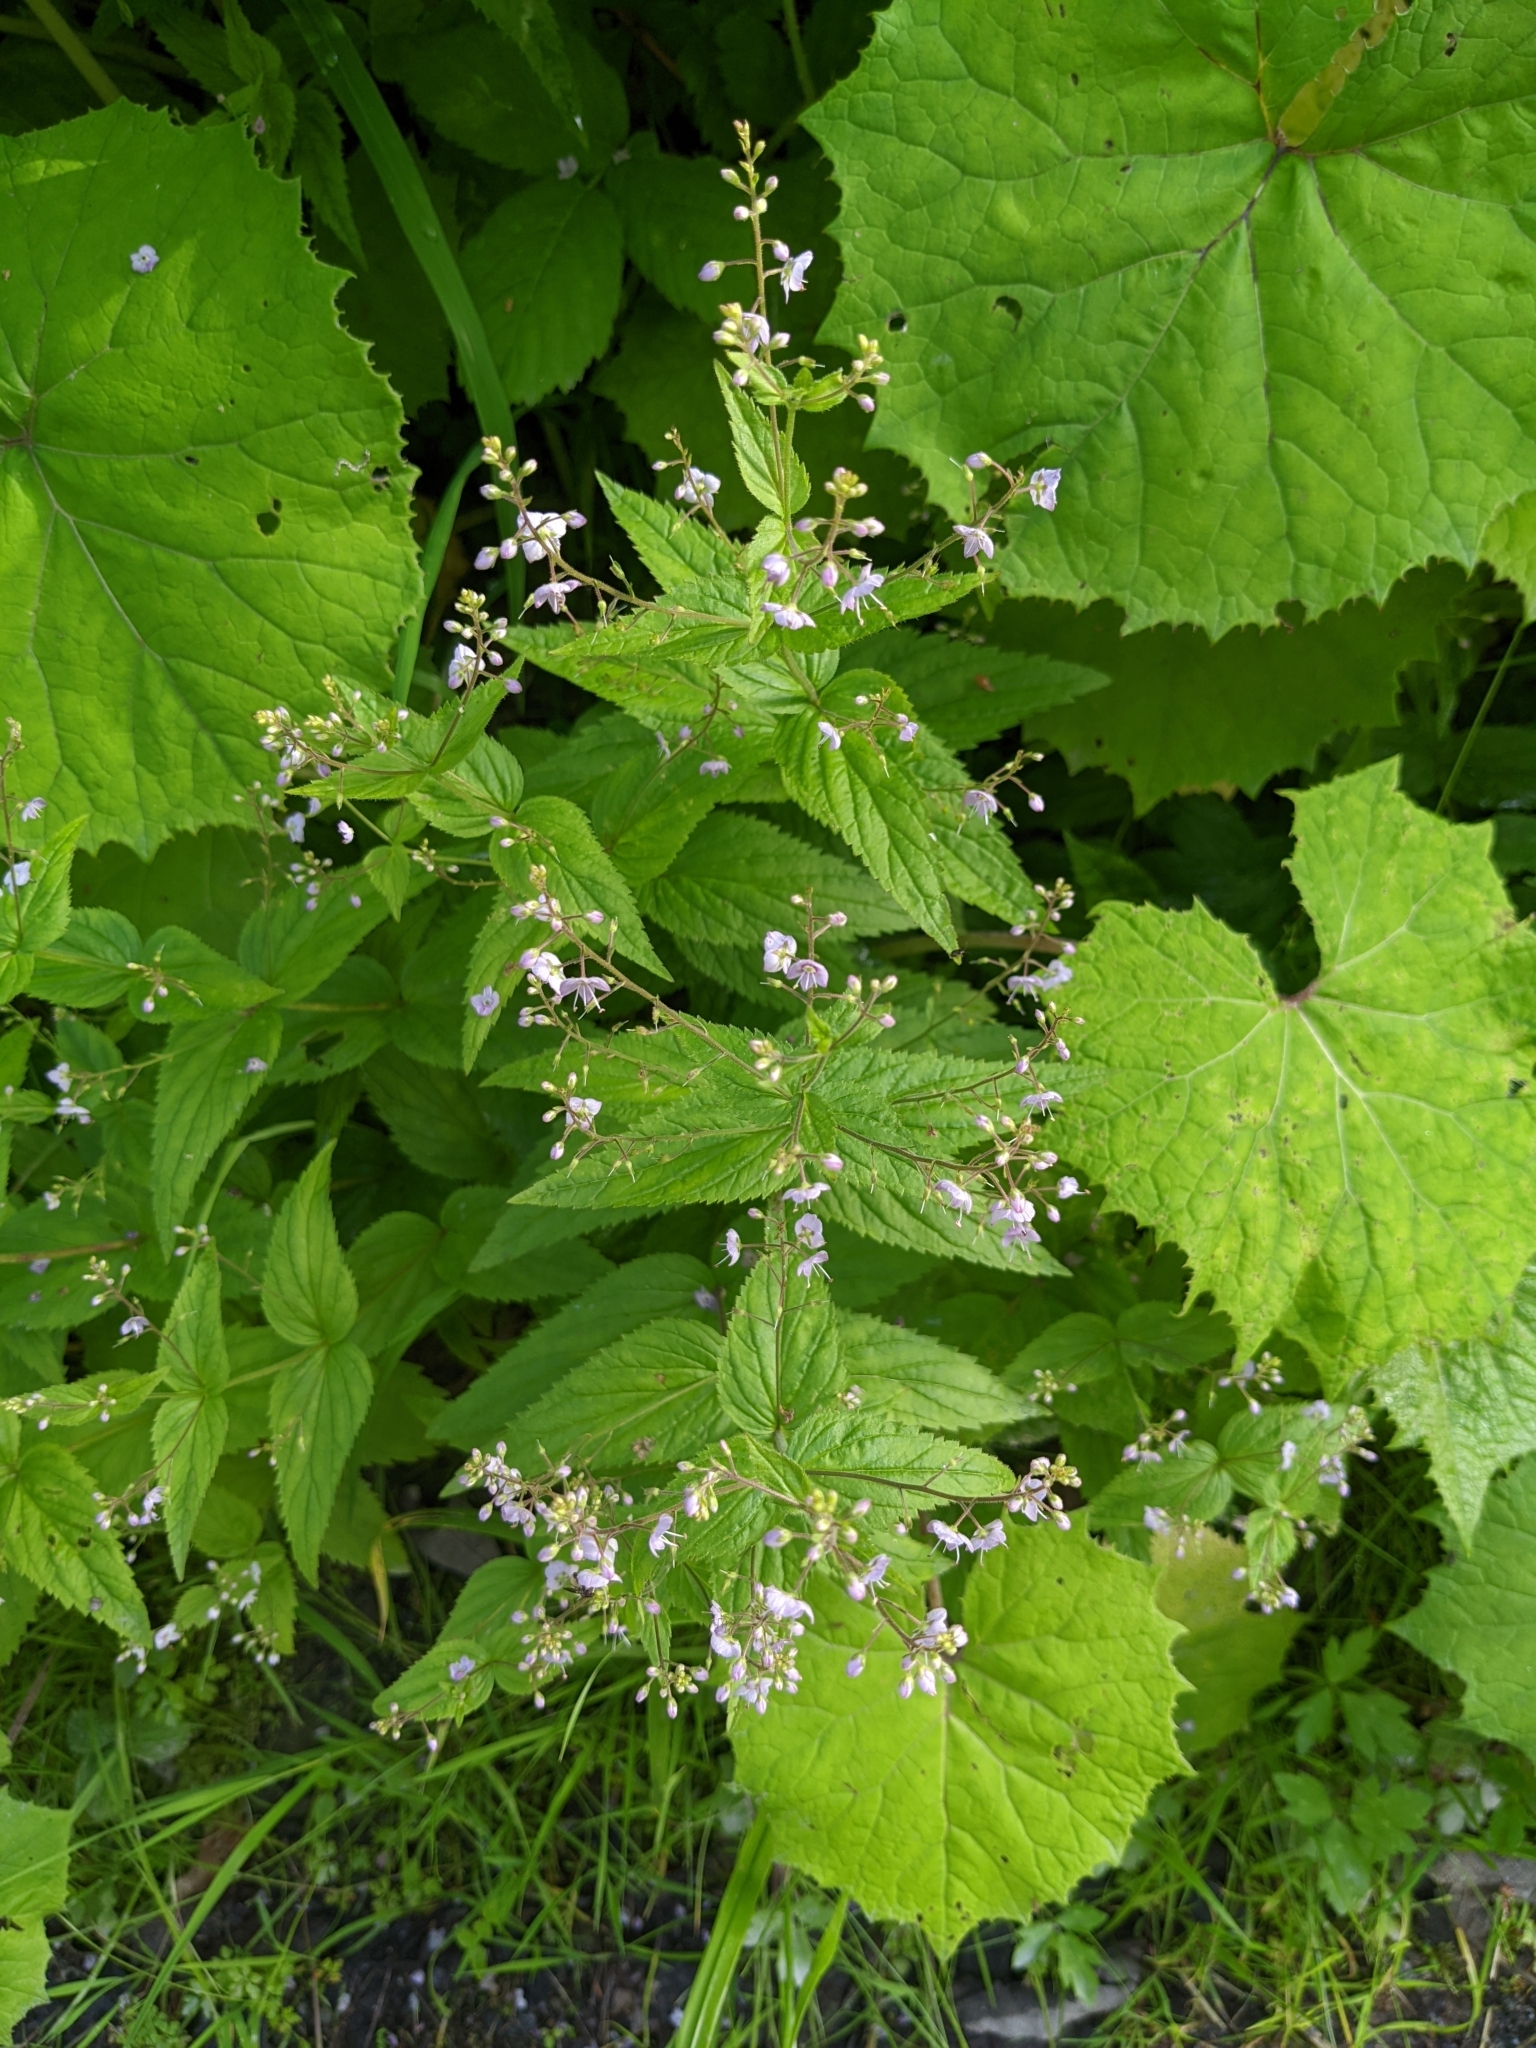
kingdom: Plantae
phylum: Tracheophyta
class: Magnoliopsida
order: Lamiales
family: Plantaginaceae
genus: Veronica
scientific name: Veronica urticifolia
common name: Nettle-leaf speedwell
